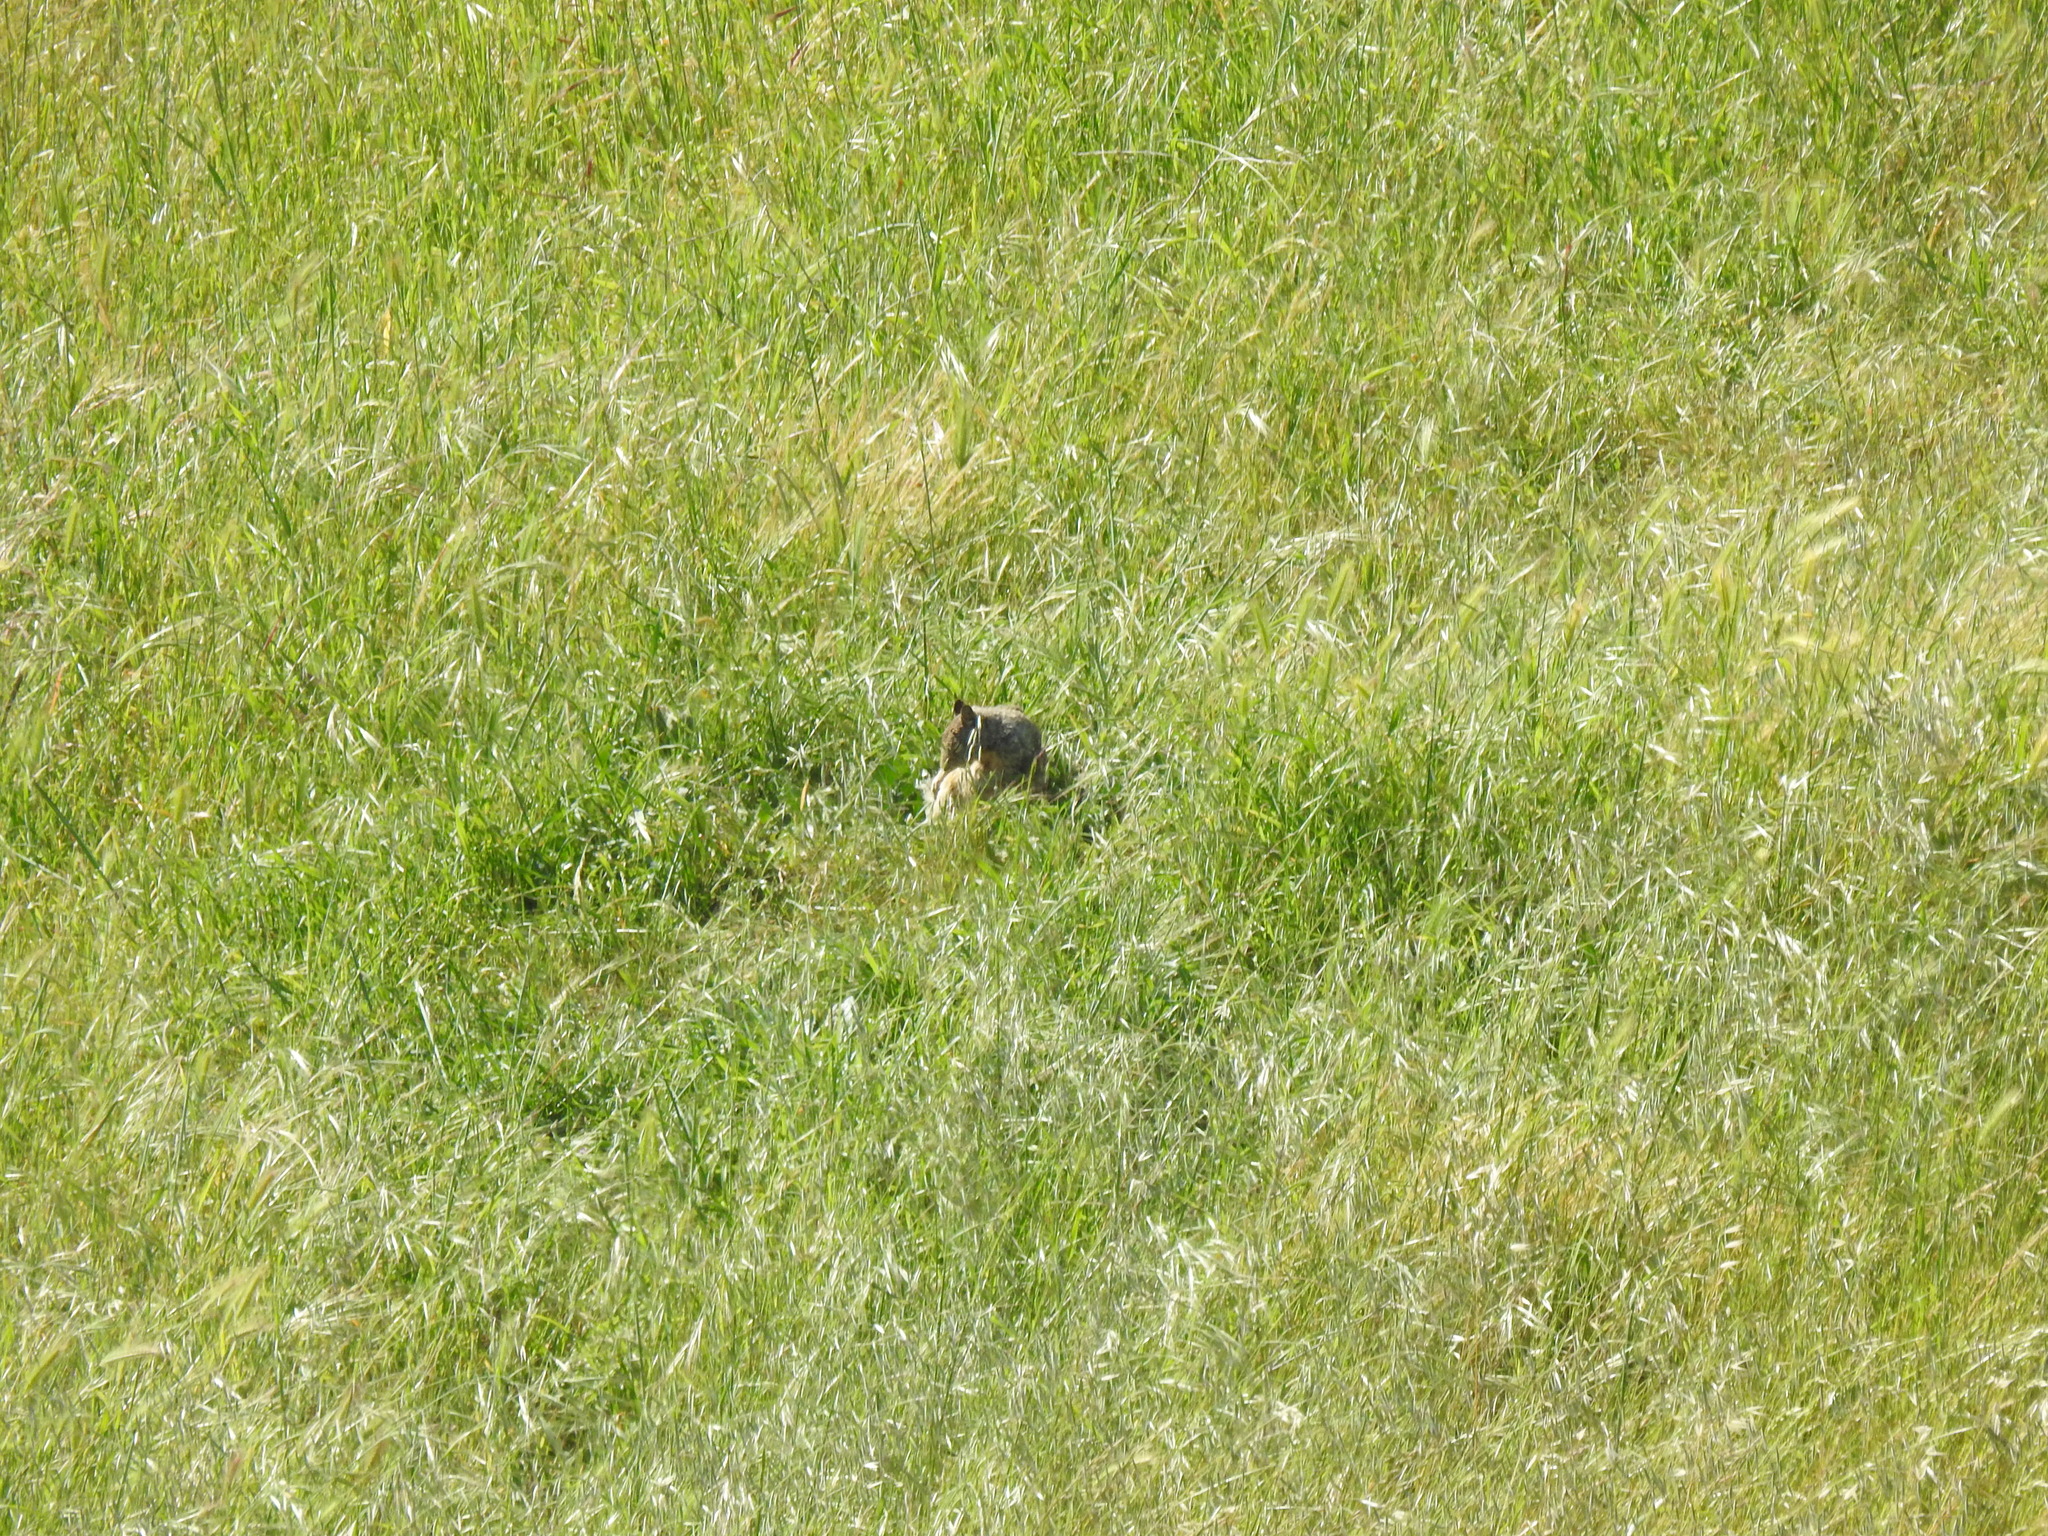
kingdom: Animalia
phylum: Chordata
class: Mammalia
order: Rodentia
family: Sciuridae
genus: Otospermophilus
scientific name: Otospermophilus beecheyi
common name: California ground squirrel
